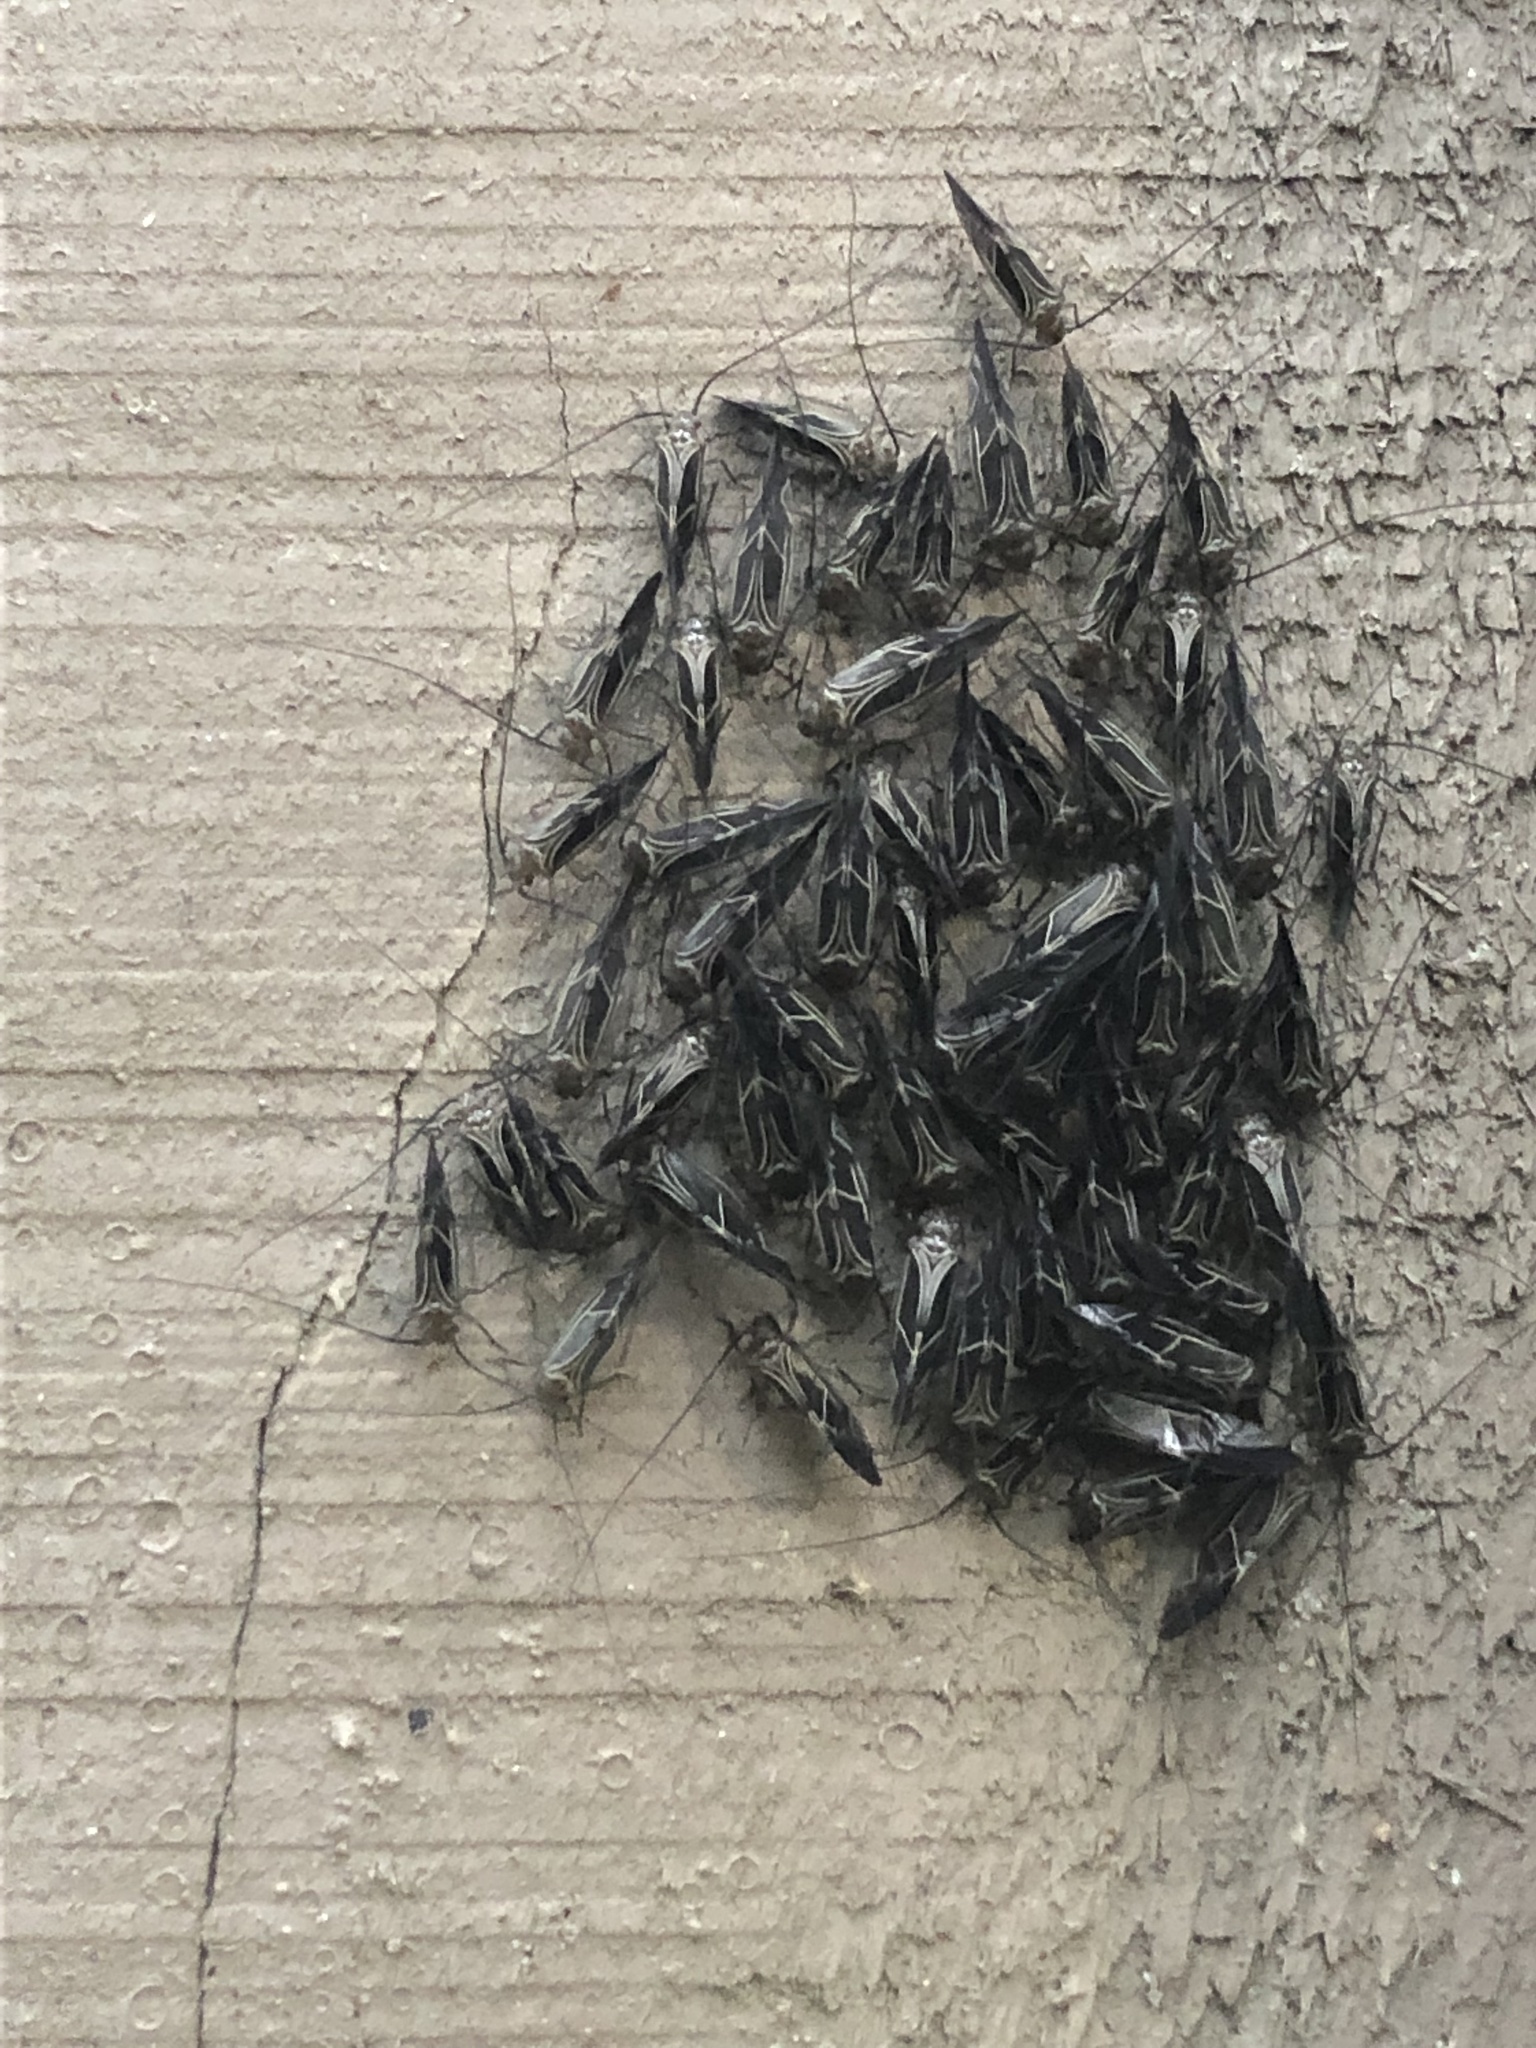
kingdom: Animalia
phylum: Arthropoda
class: Insecta
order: Psocodea
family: Psocidae
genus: Cerastipsocus
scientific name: Cerastipsocus venosus
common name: Tree cattle
